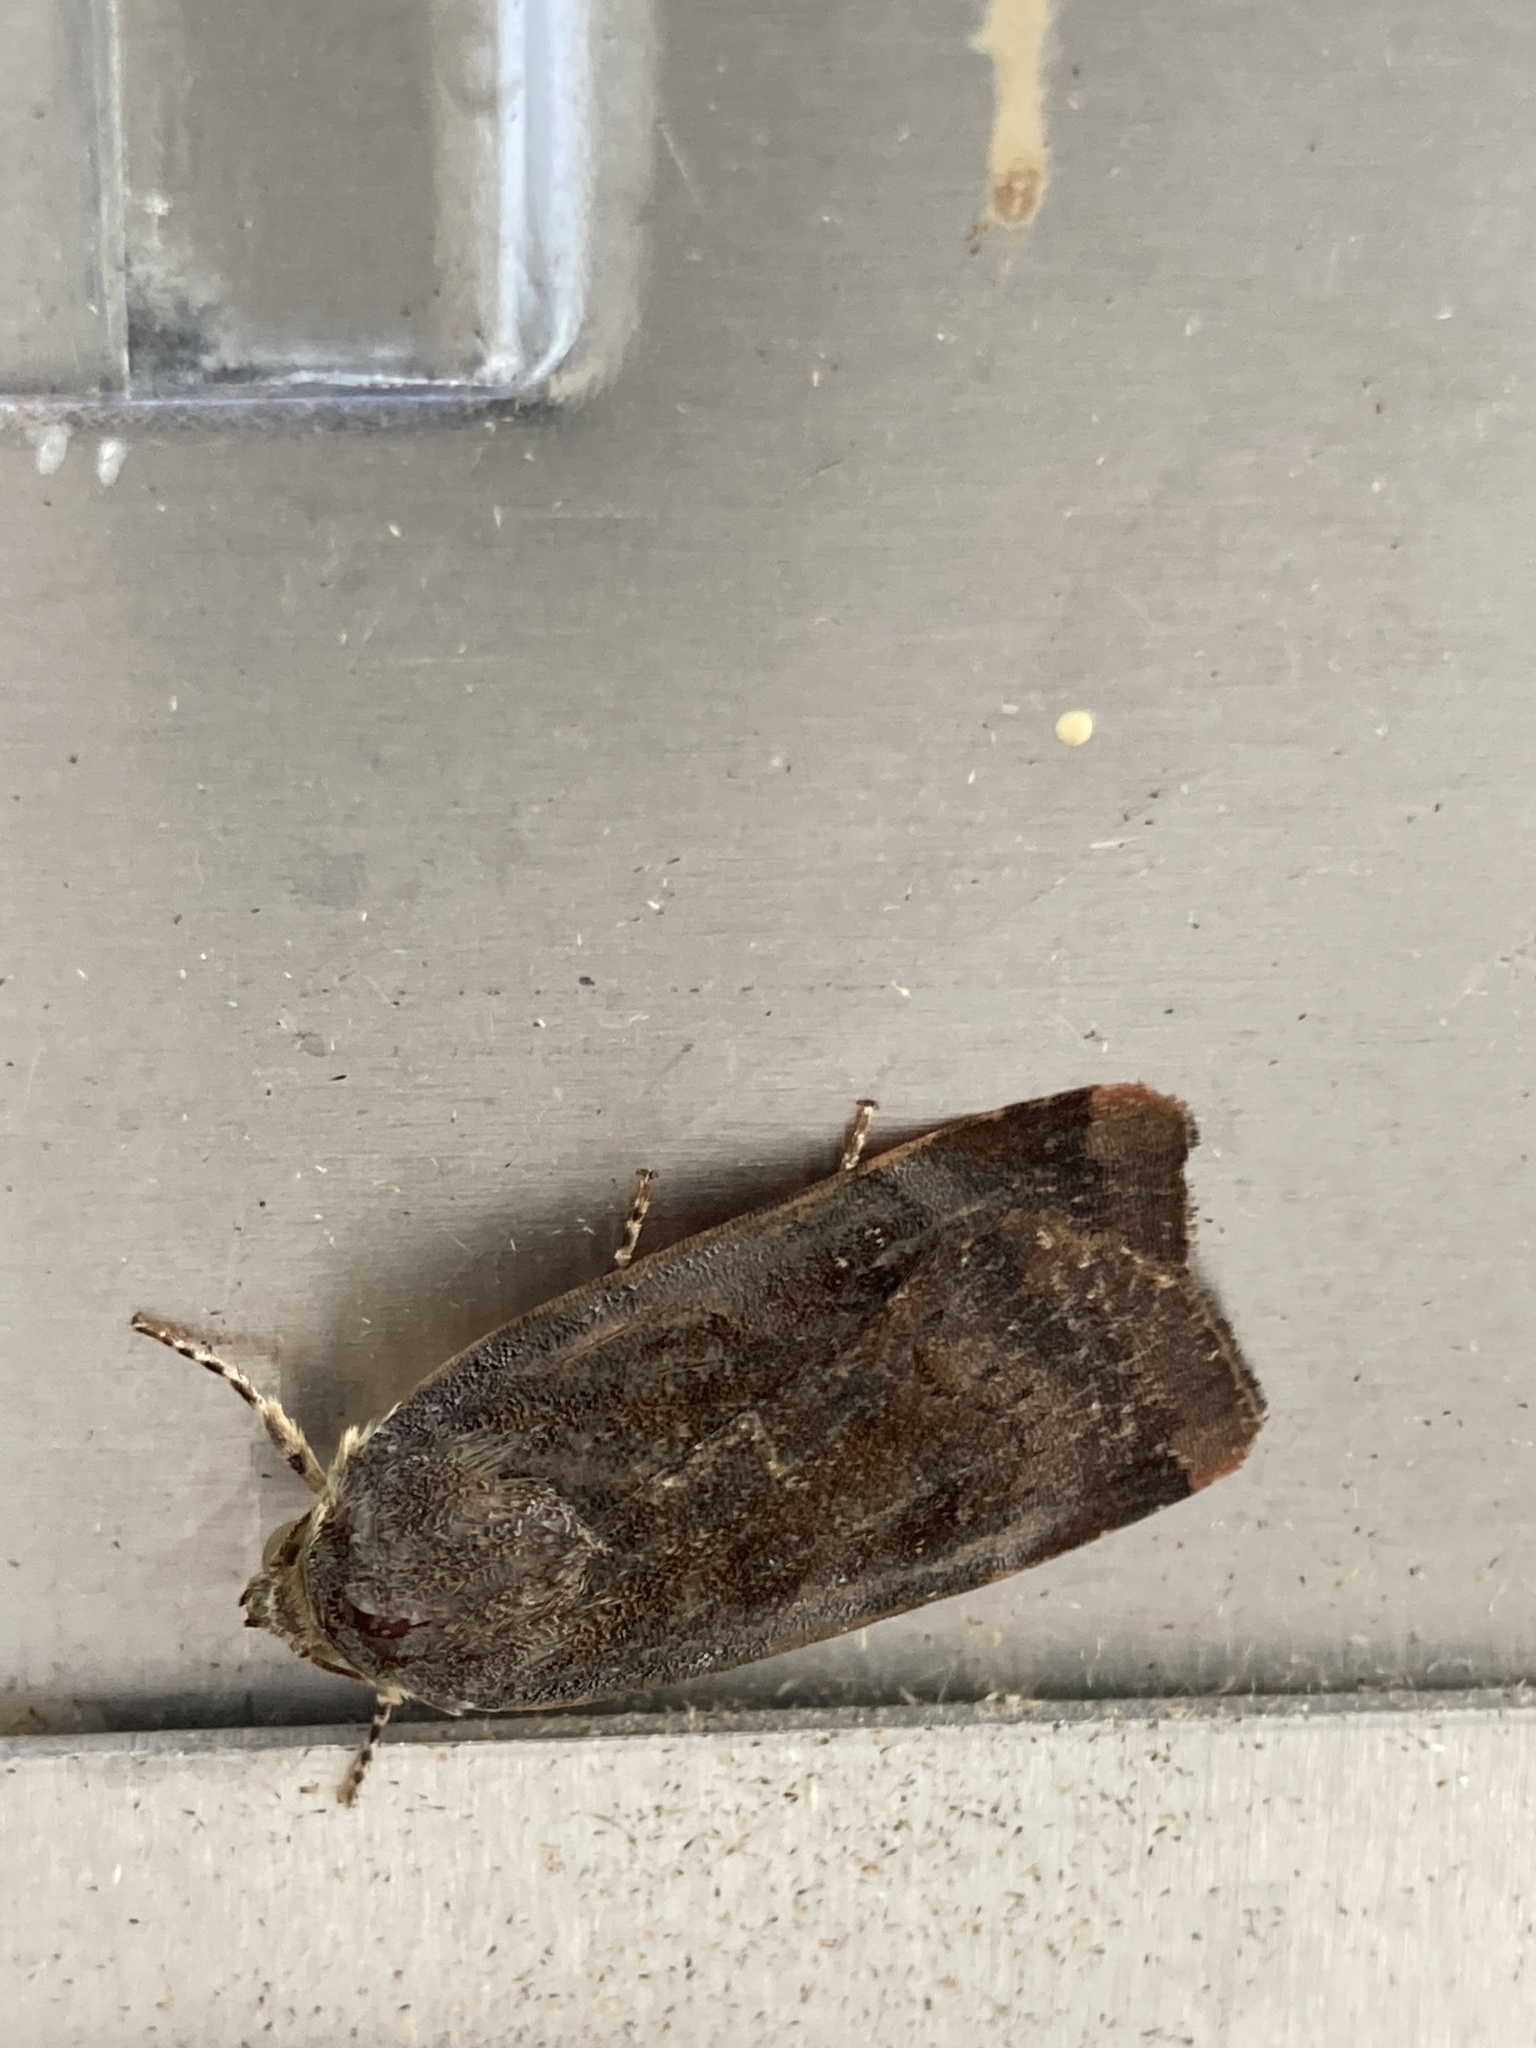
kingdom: Animalia
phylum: Arthropoda
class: Insecta
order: Lepidoptera
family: Noctuidae
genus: Noctua
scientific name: Noctua janthe
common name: Lesser broad-bordered yellow underwing
